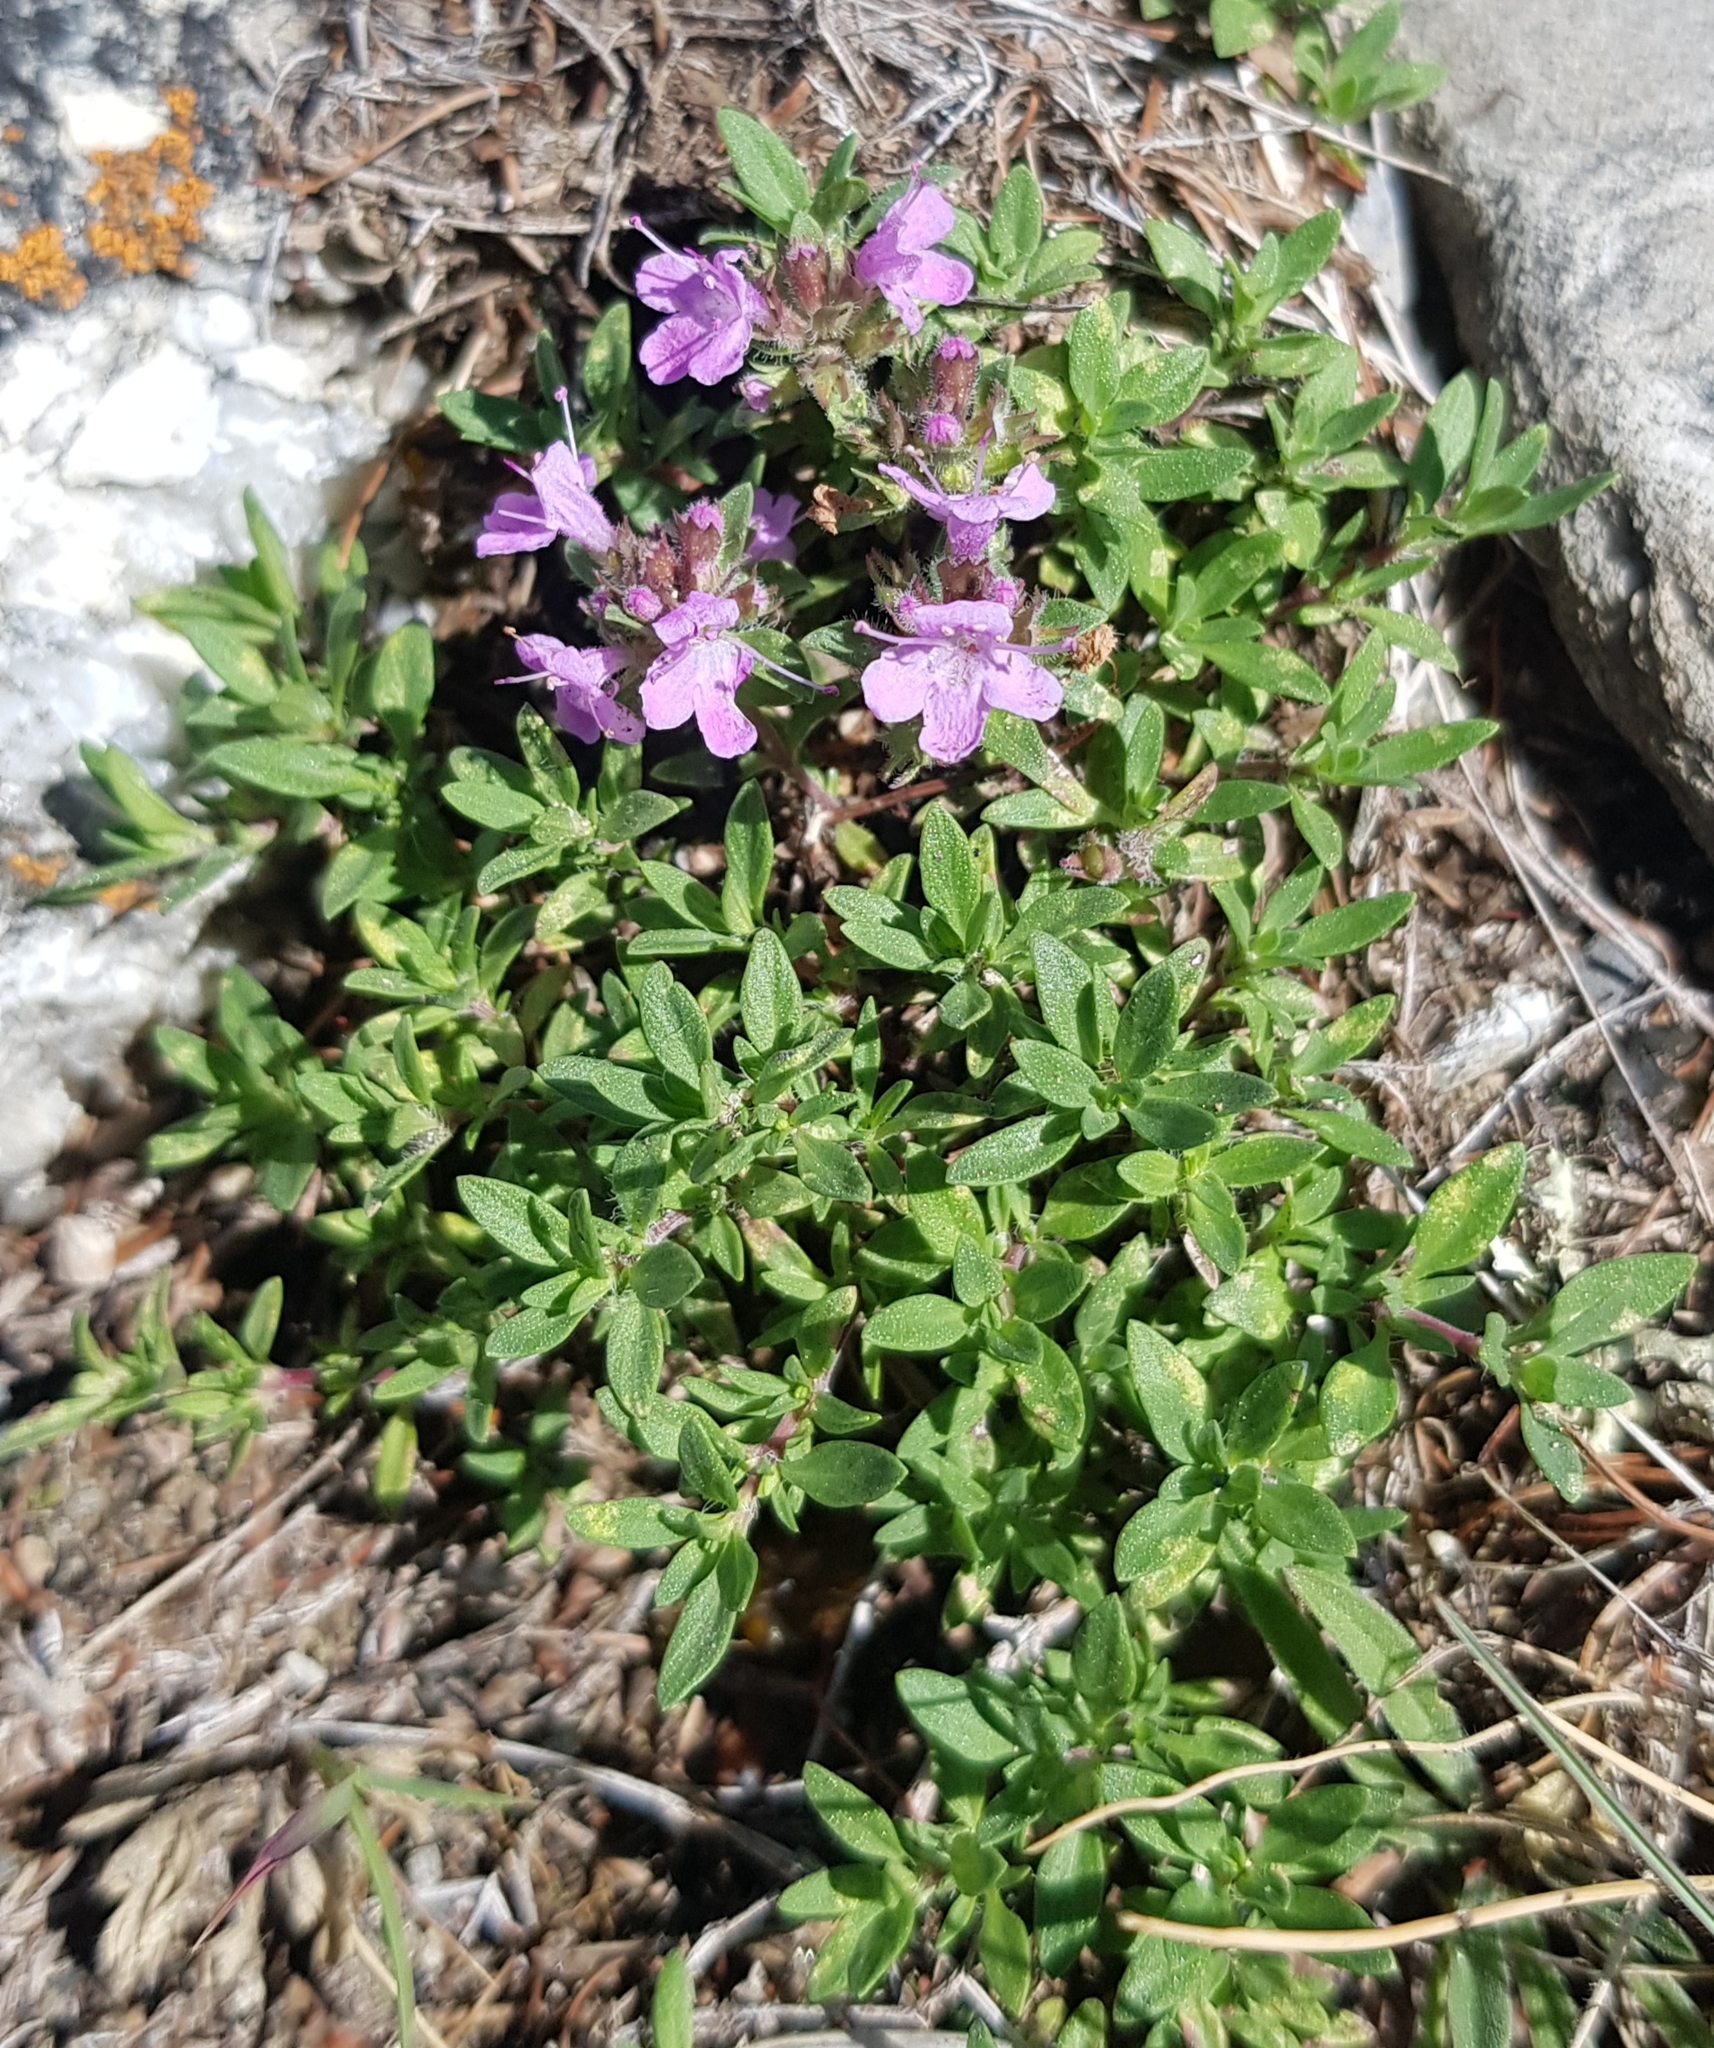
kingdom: Plantae
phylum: Tracheophyta
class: Magnoliopsida
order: Lamiales
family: Lamiaceae
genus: Thymus
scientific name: Thymus pavlovii
